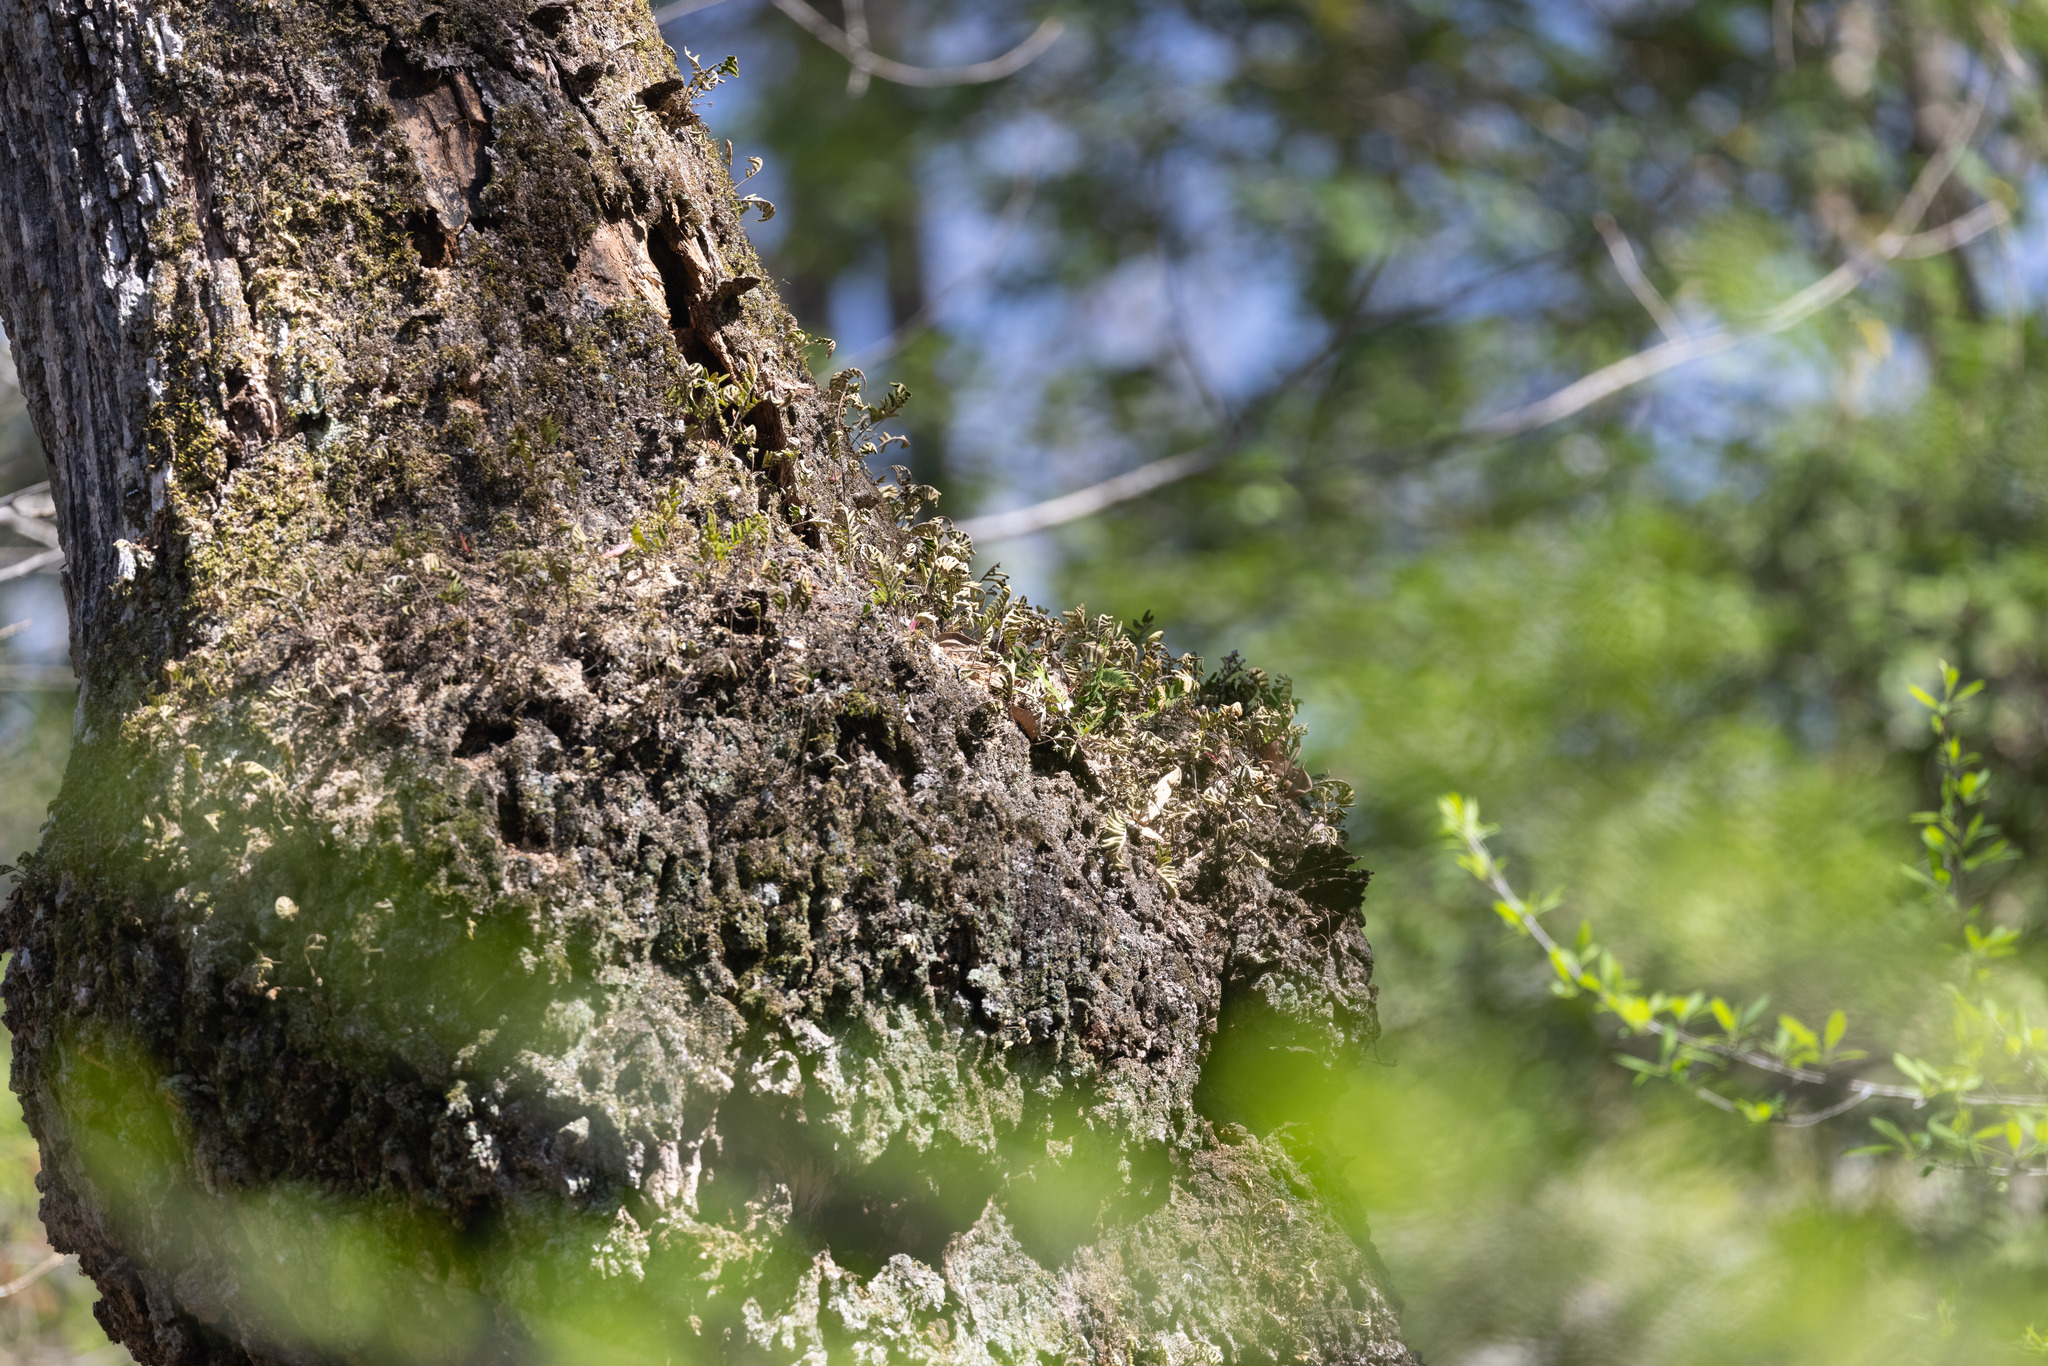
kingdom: Plantae
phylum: Tracheophyta
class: Polypodiopsida
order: Polypodiales
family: Polypodiaceae
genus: Pleopeltis
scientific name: Pleopeltis michauxiana
